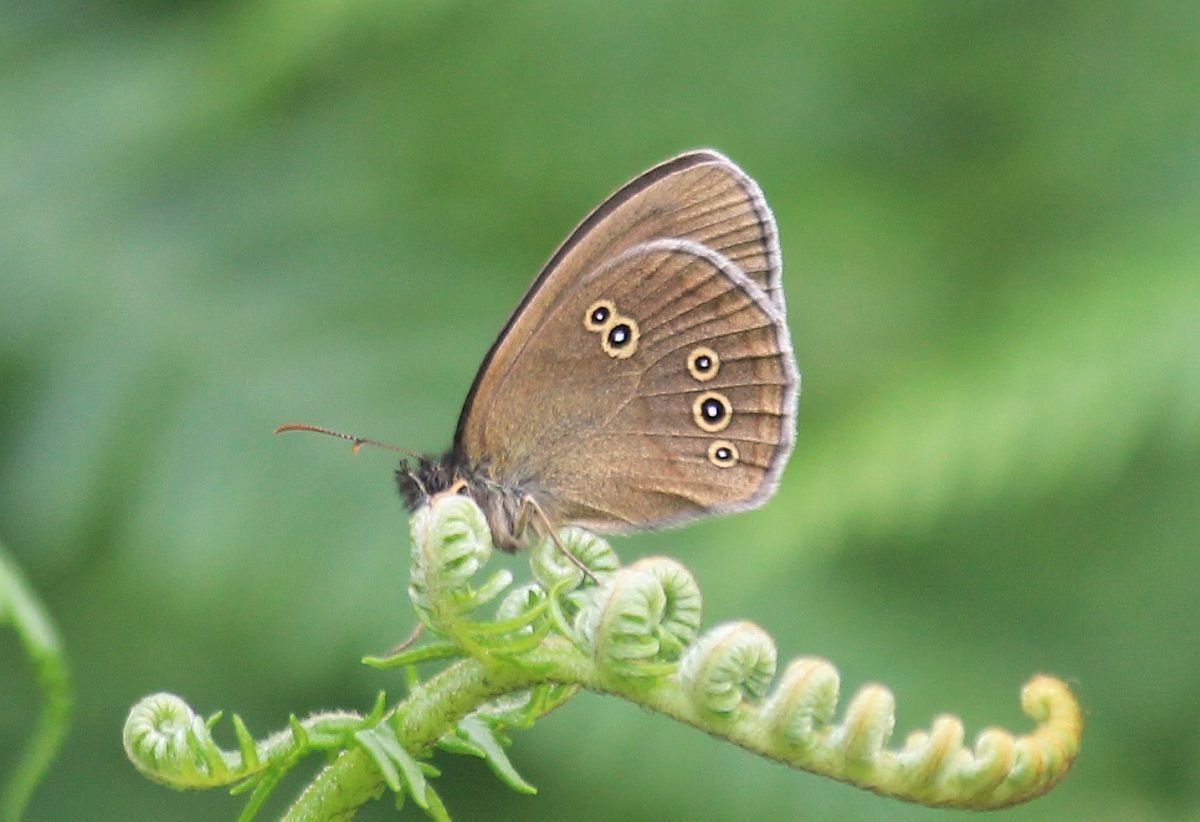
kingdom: Animalia
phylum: Arthropoda
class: Insecta
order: Lepidoptera
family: Nymphalidae
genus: Aphantopus
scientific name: Aphantopus hyperantus
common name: Ringlet
